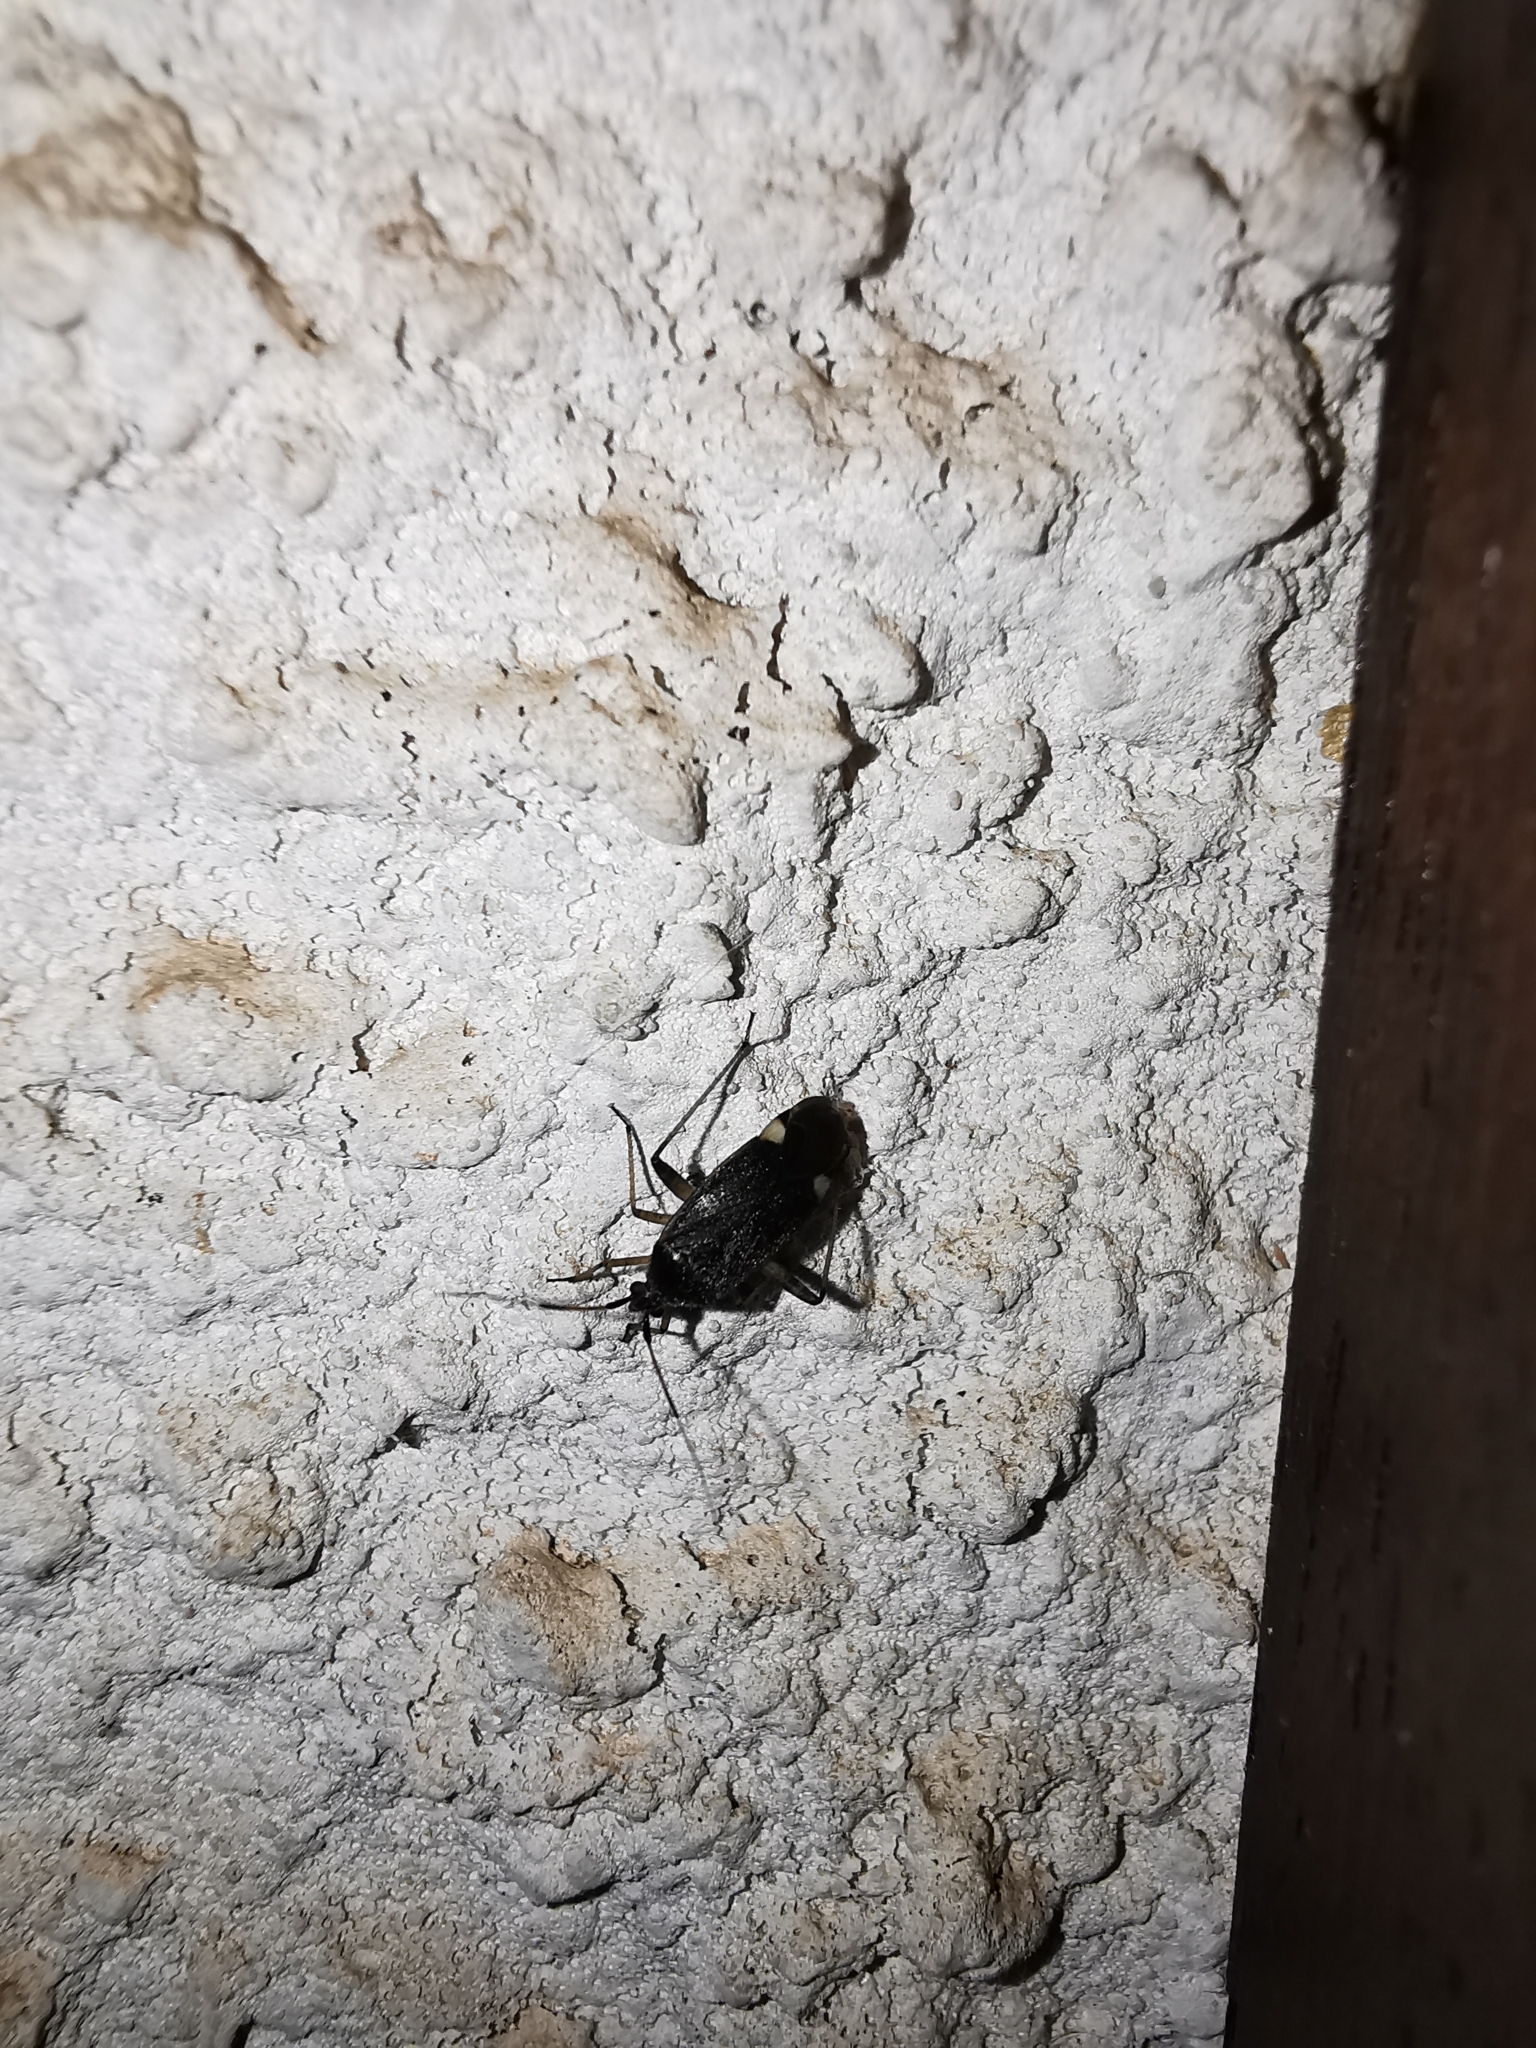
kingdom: Animalia
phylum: Arthropoda
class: Insecta
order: Hemiptera
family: Miridae
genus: Closterotomus
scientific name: Closterotomus annulus
